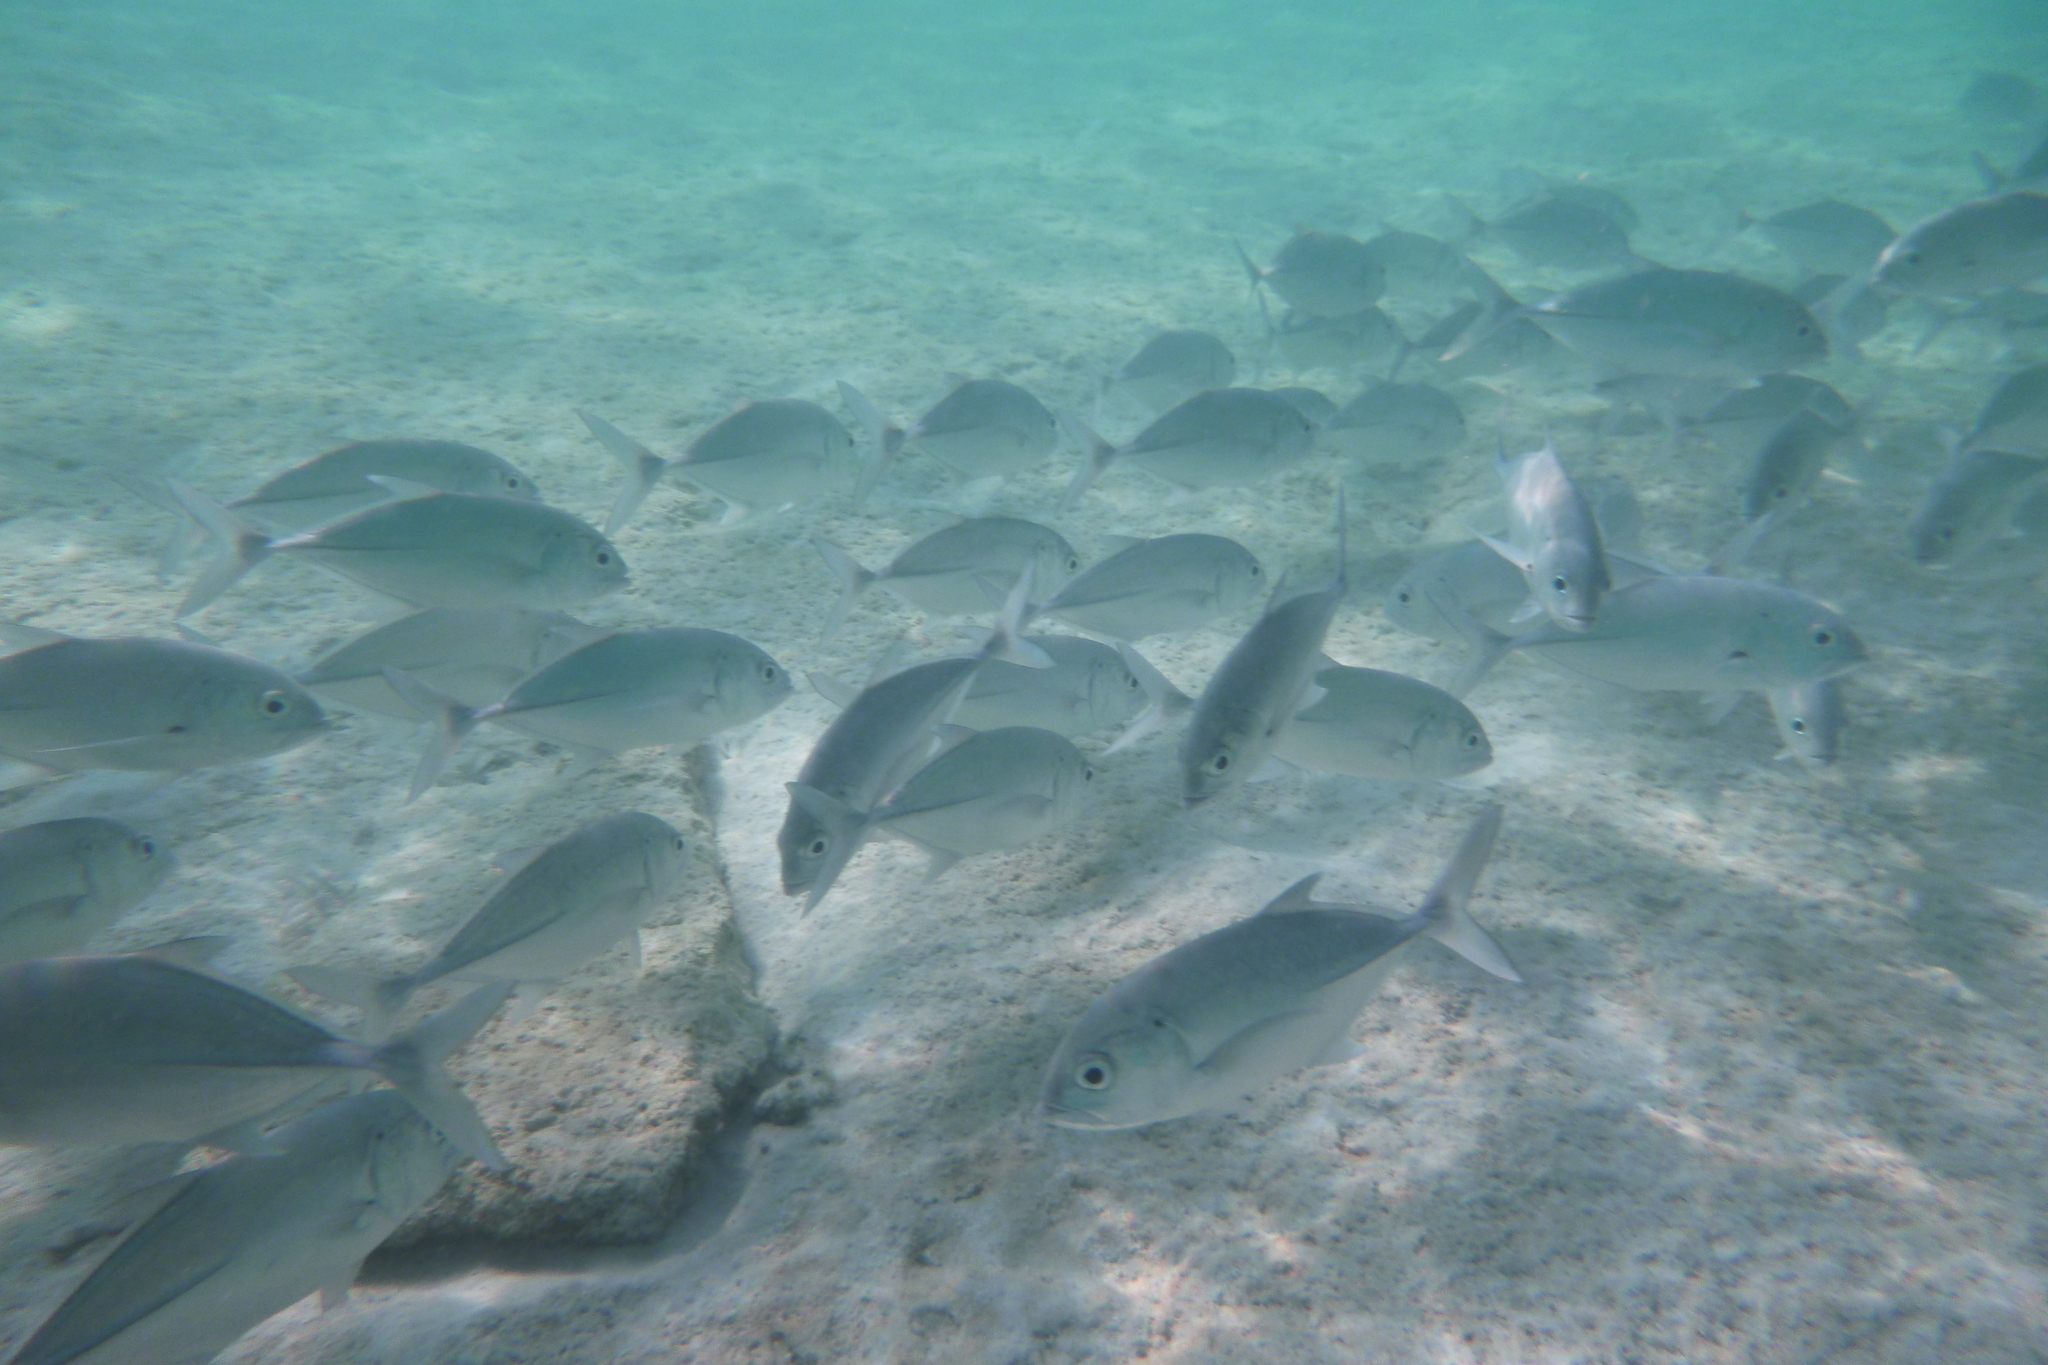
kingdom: Animalia
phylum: Chordata
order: Perciformes
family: Carangidae
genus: Caranx
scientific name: Caranx sexfasciatus
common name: Bigeye trevally
